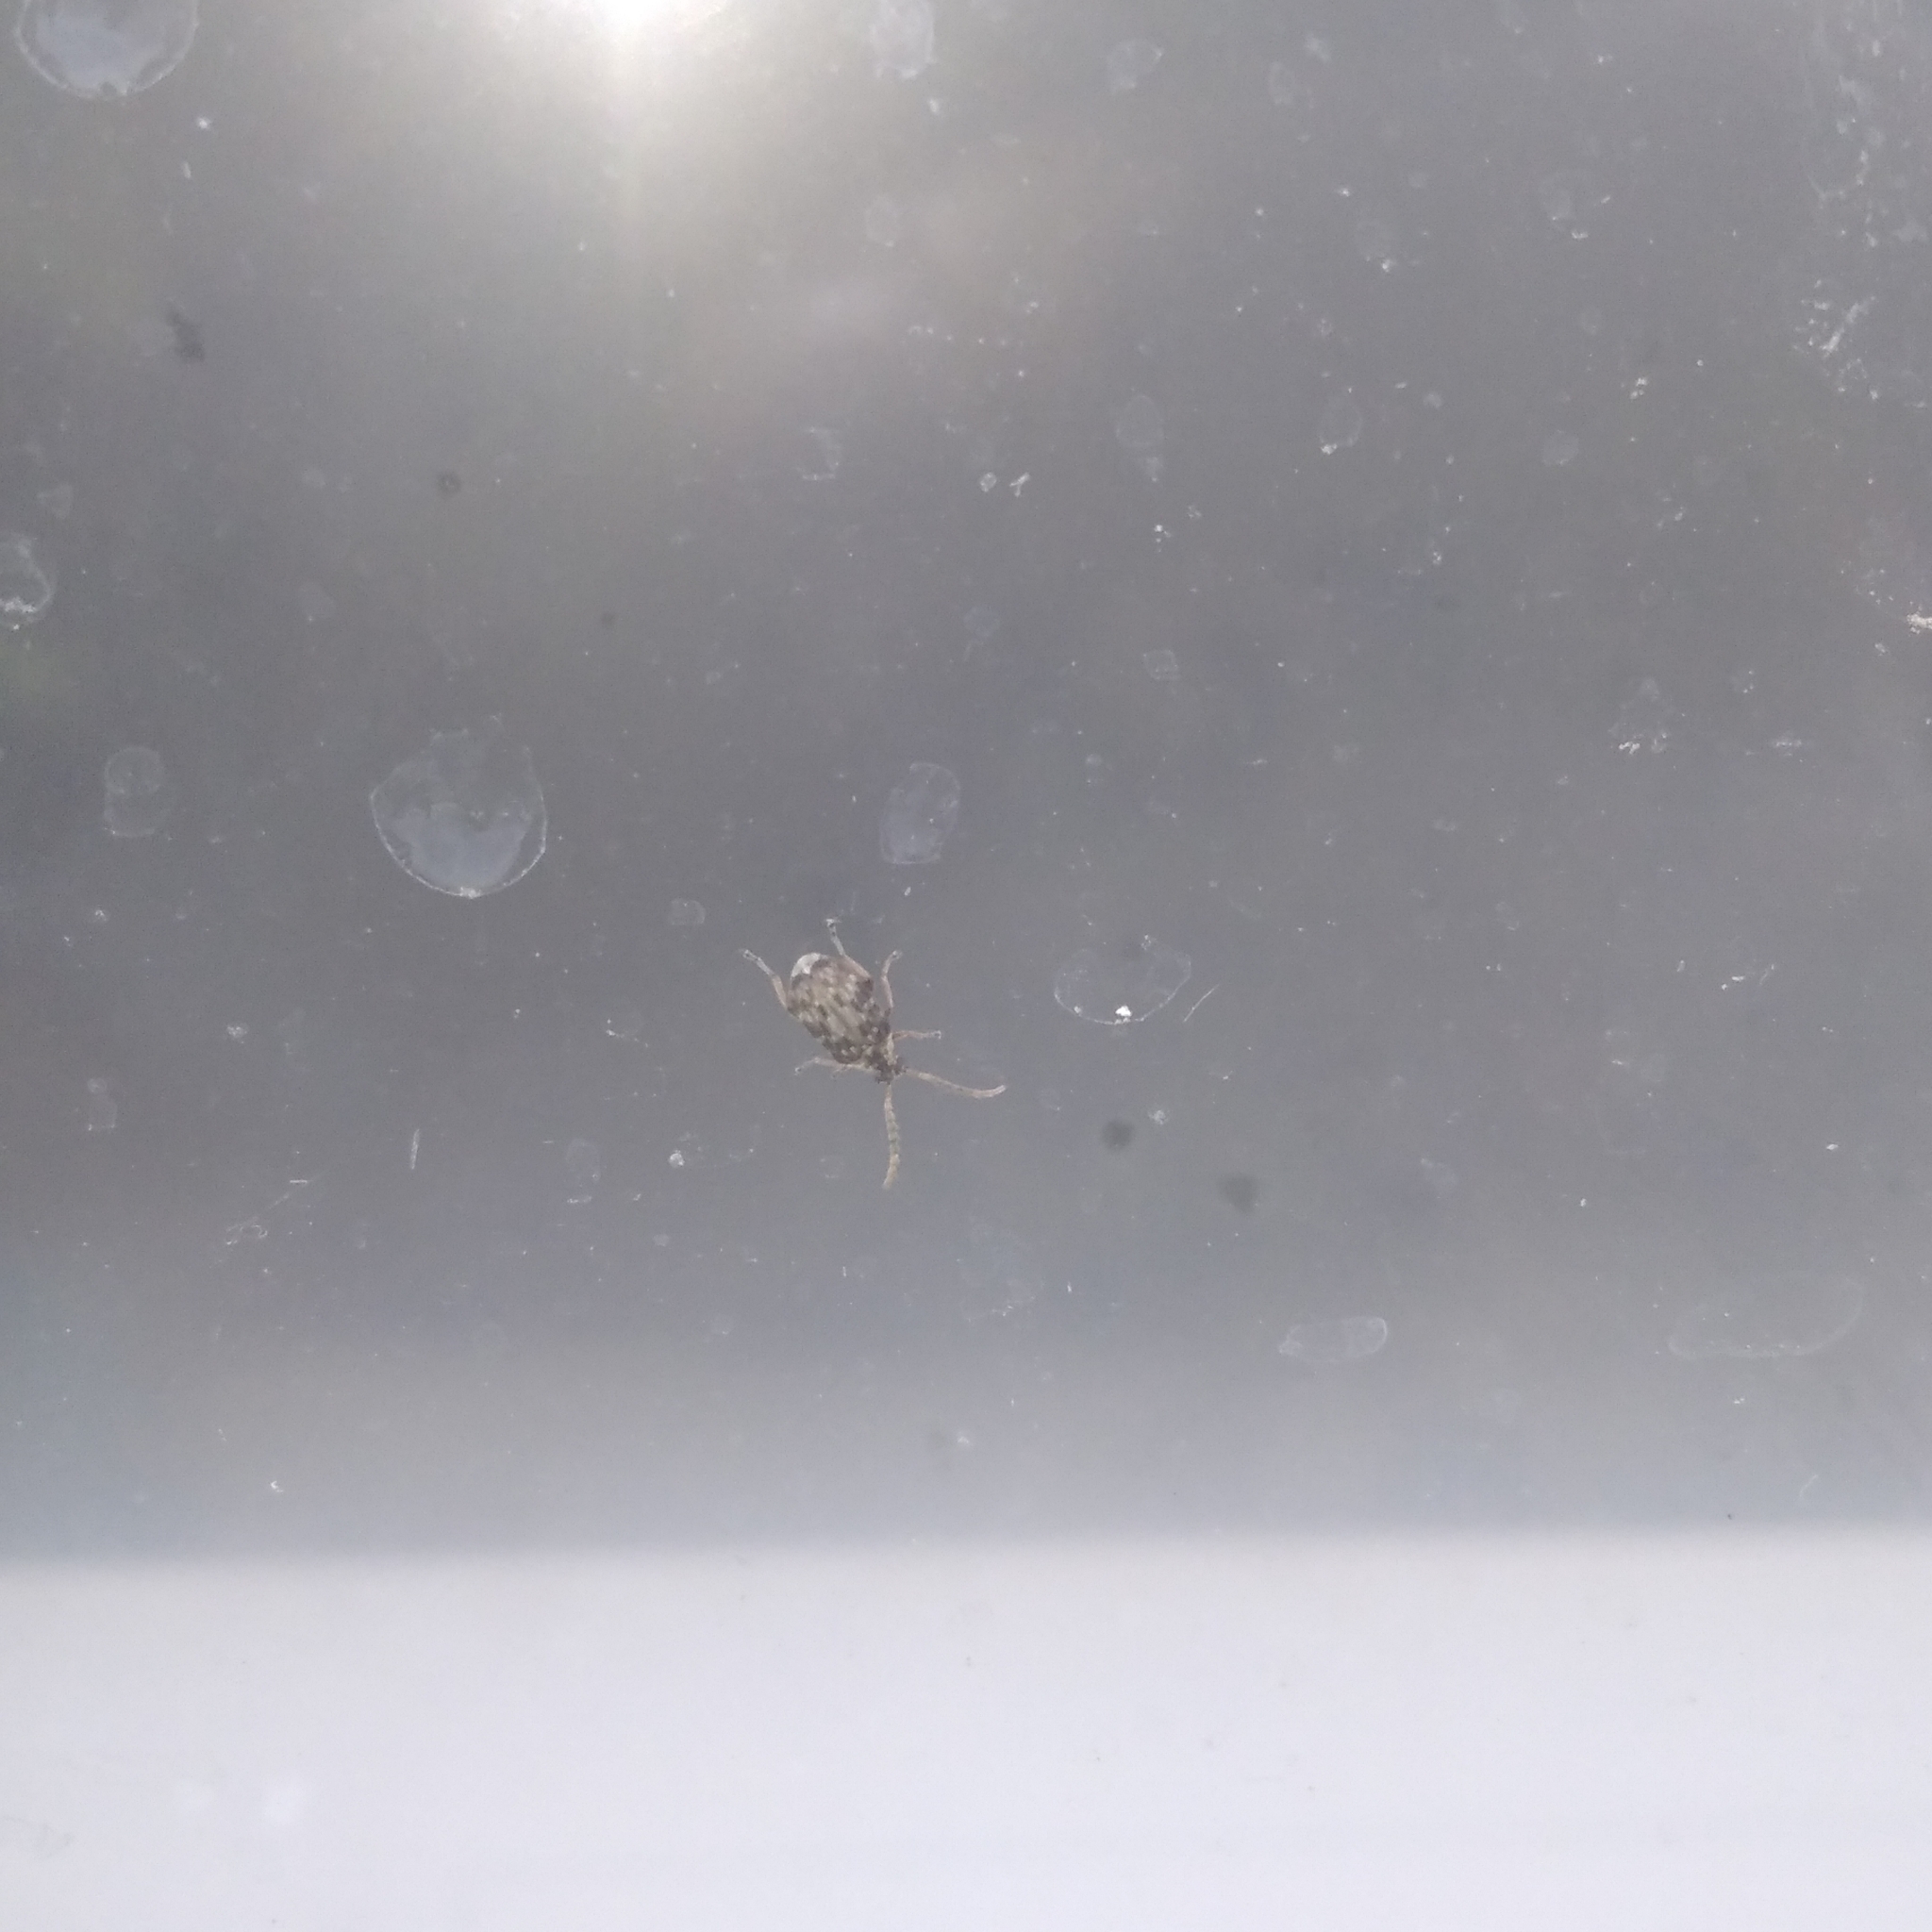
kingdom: Animalia
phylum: Arthropoda
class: Insecta
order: Coleoptera
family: Chrysomelidae
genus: Acanthoscelides
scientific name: Acanthoscelides obtectus
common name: Bean weevil
